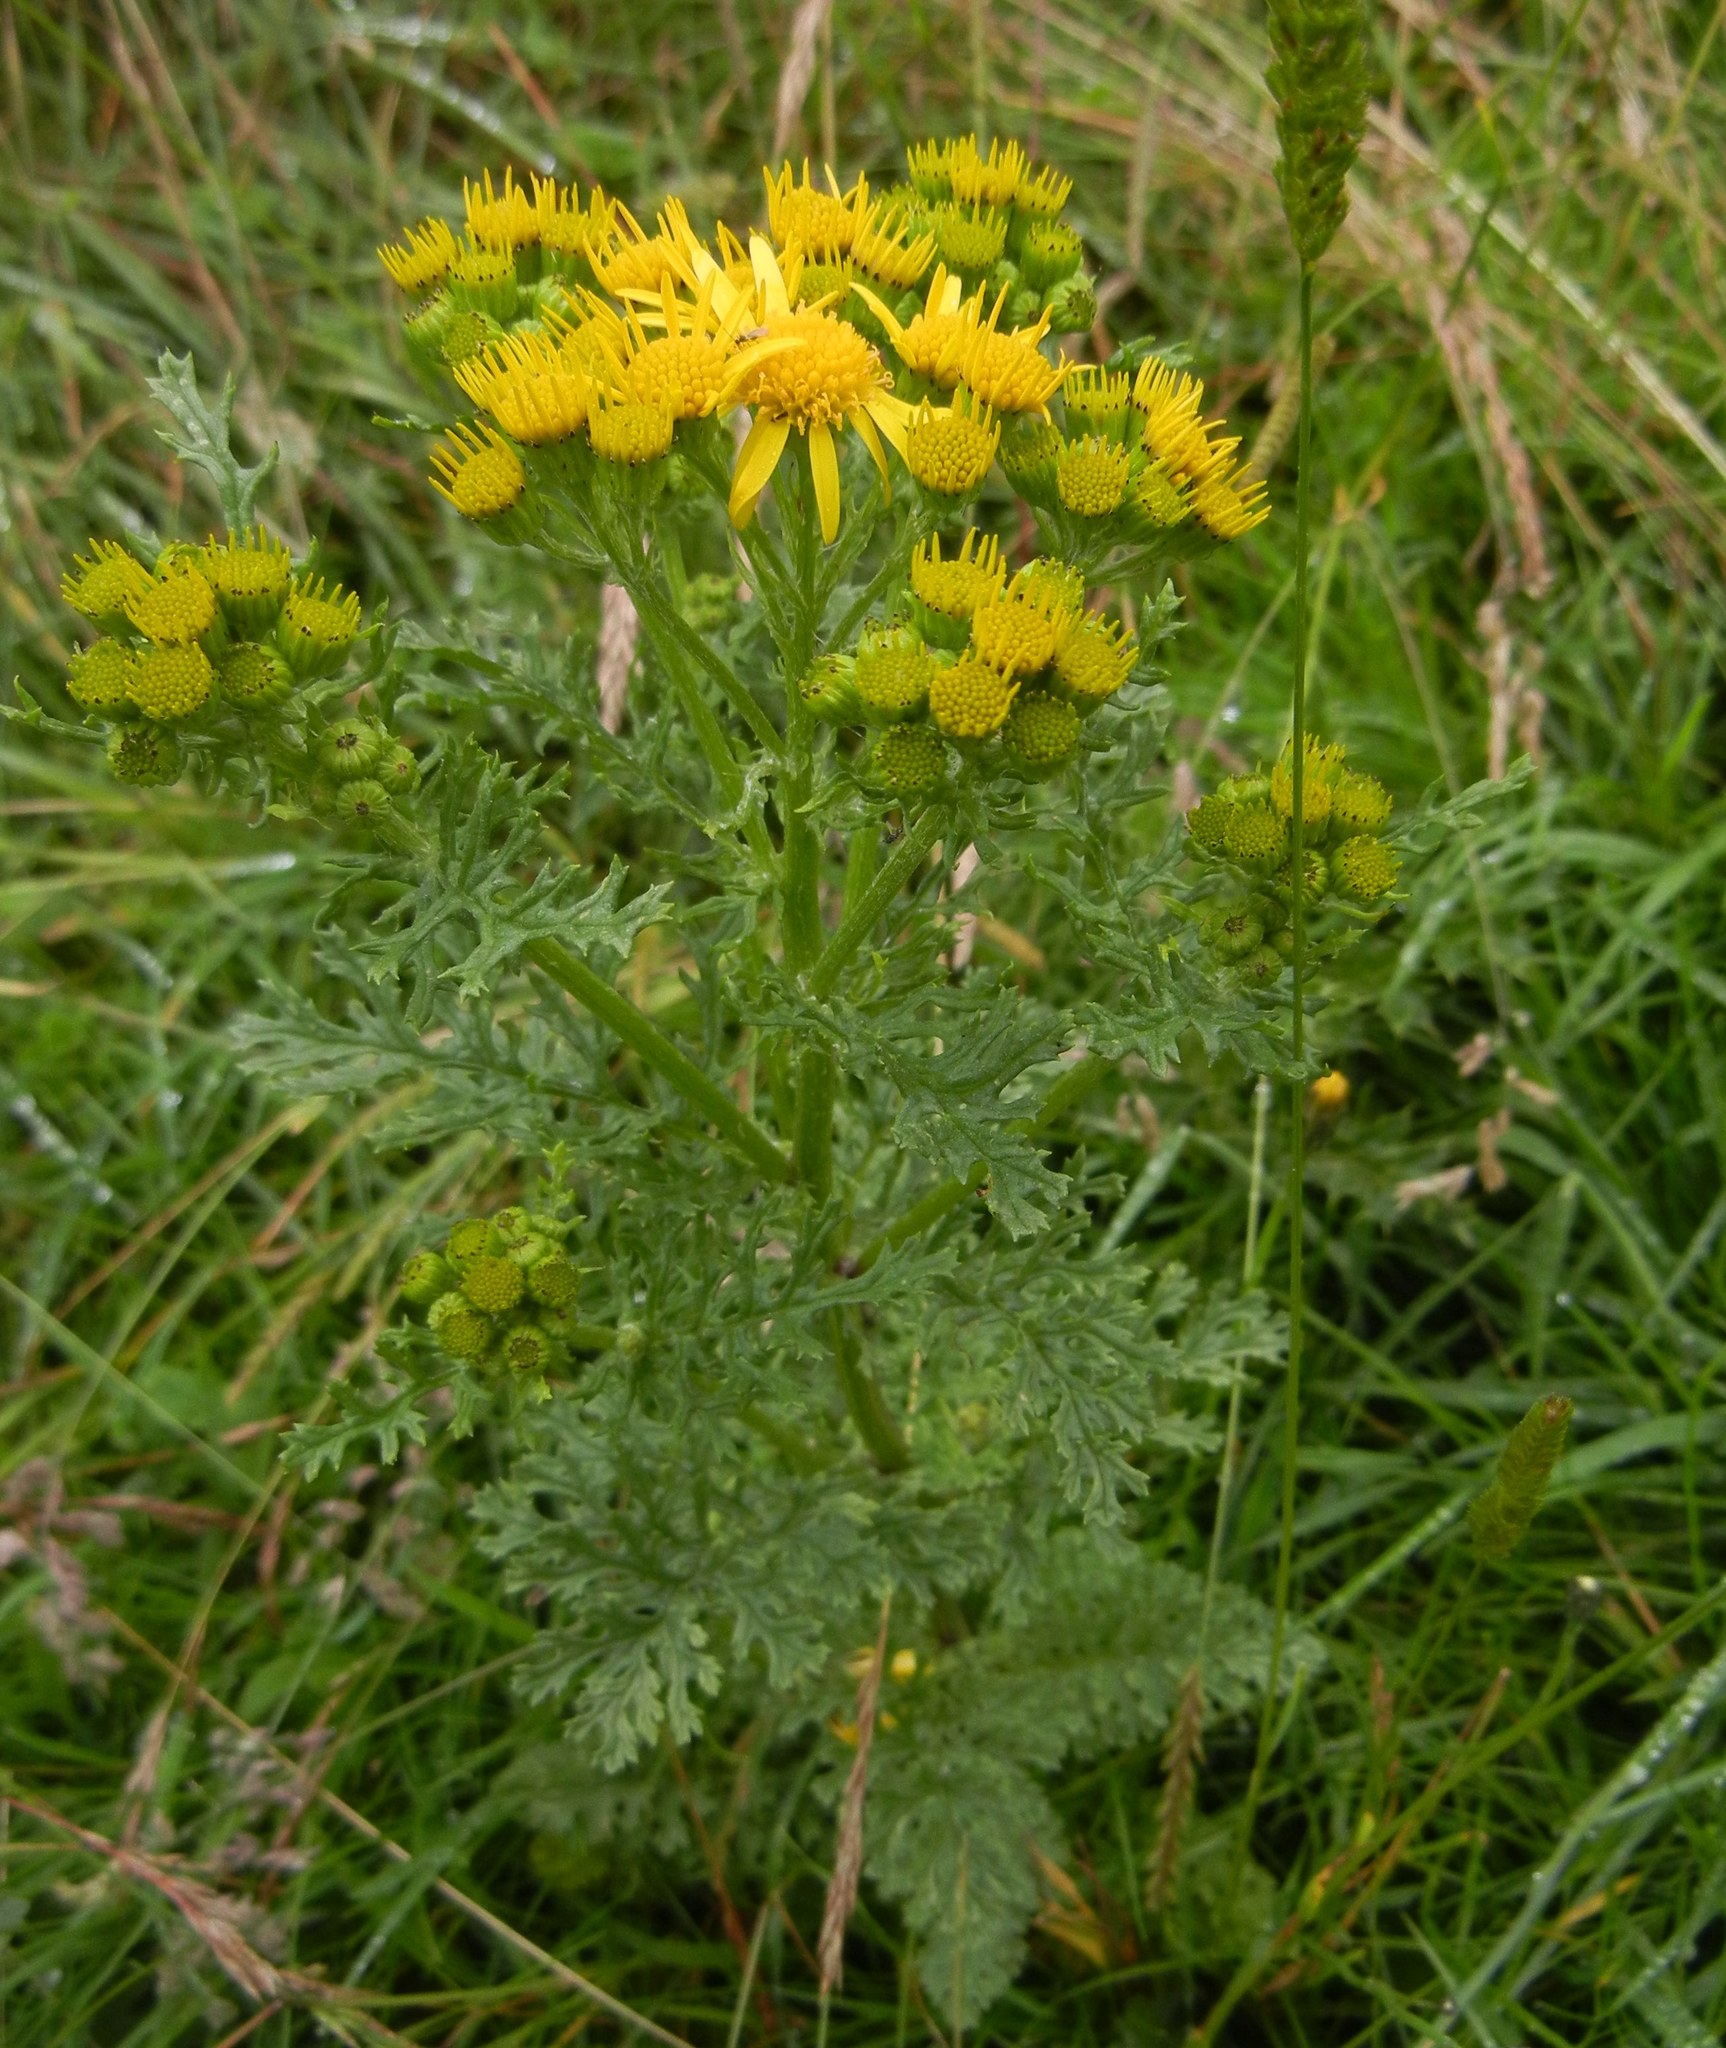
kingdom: Plantae
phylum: Tracheophyta
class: Magnoliopsida
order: Asterales
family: Asteraceae
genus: Jacobaea
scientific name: Jacobaea vulgaris
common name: Stinking willie
